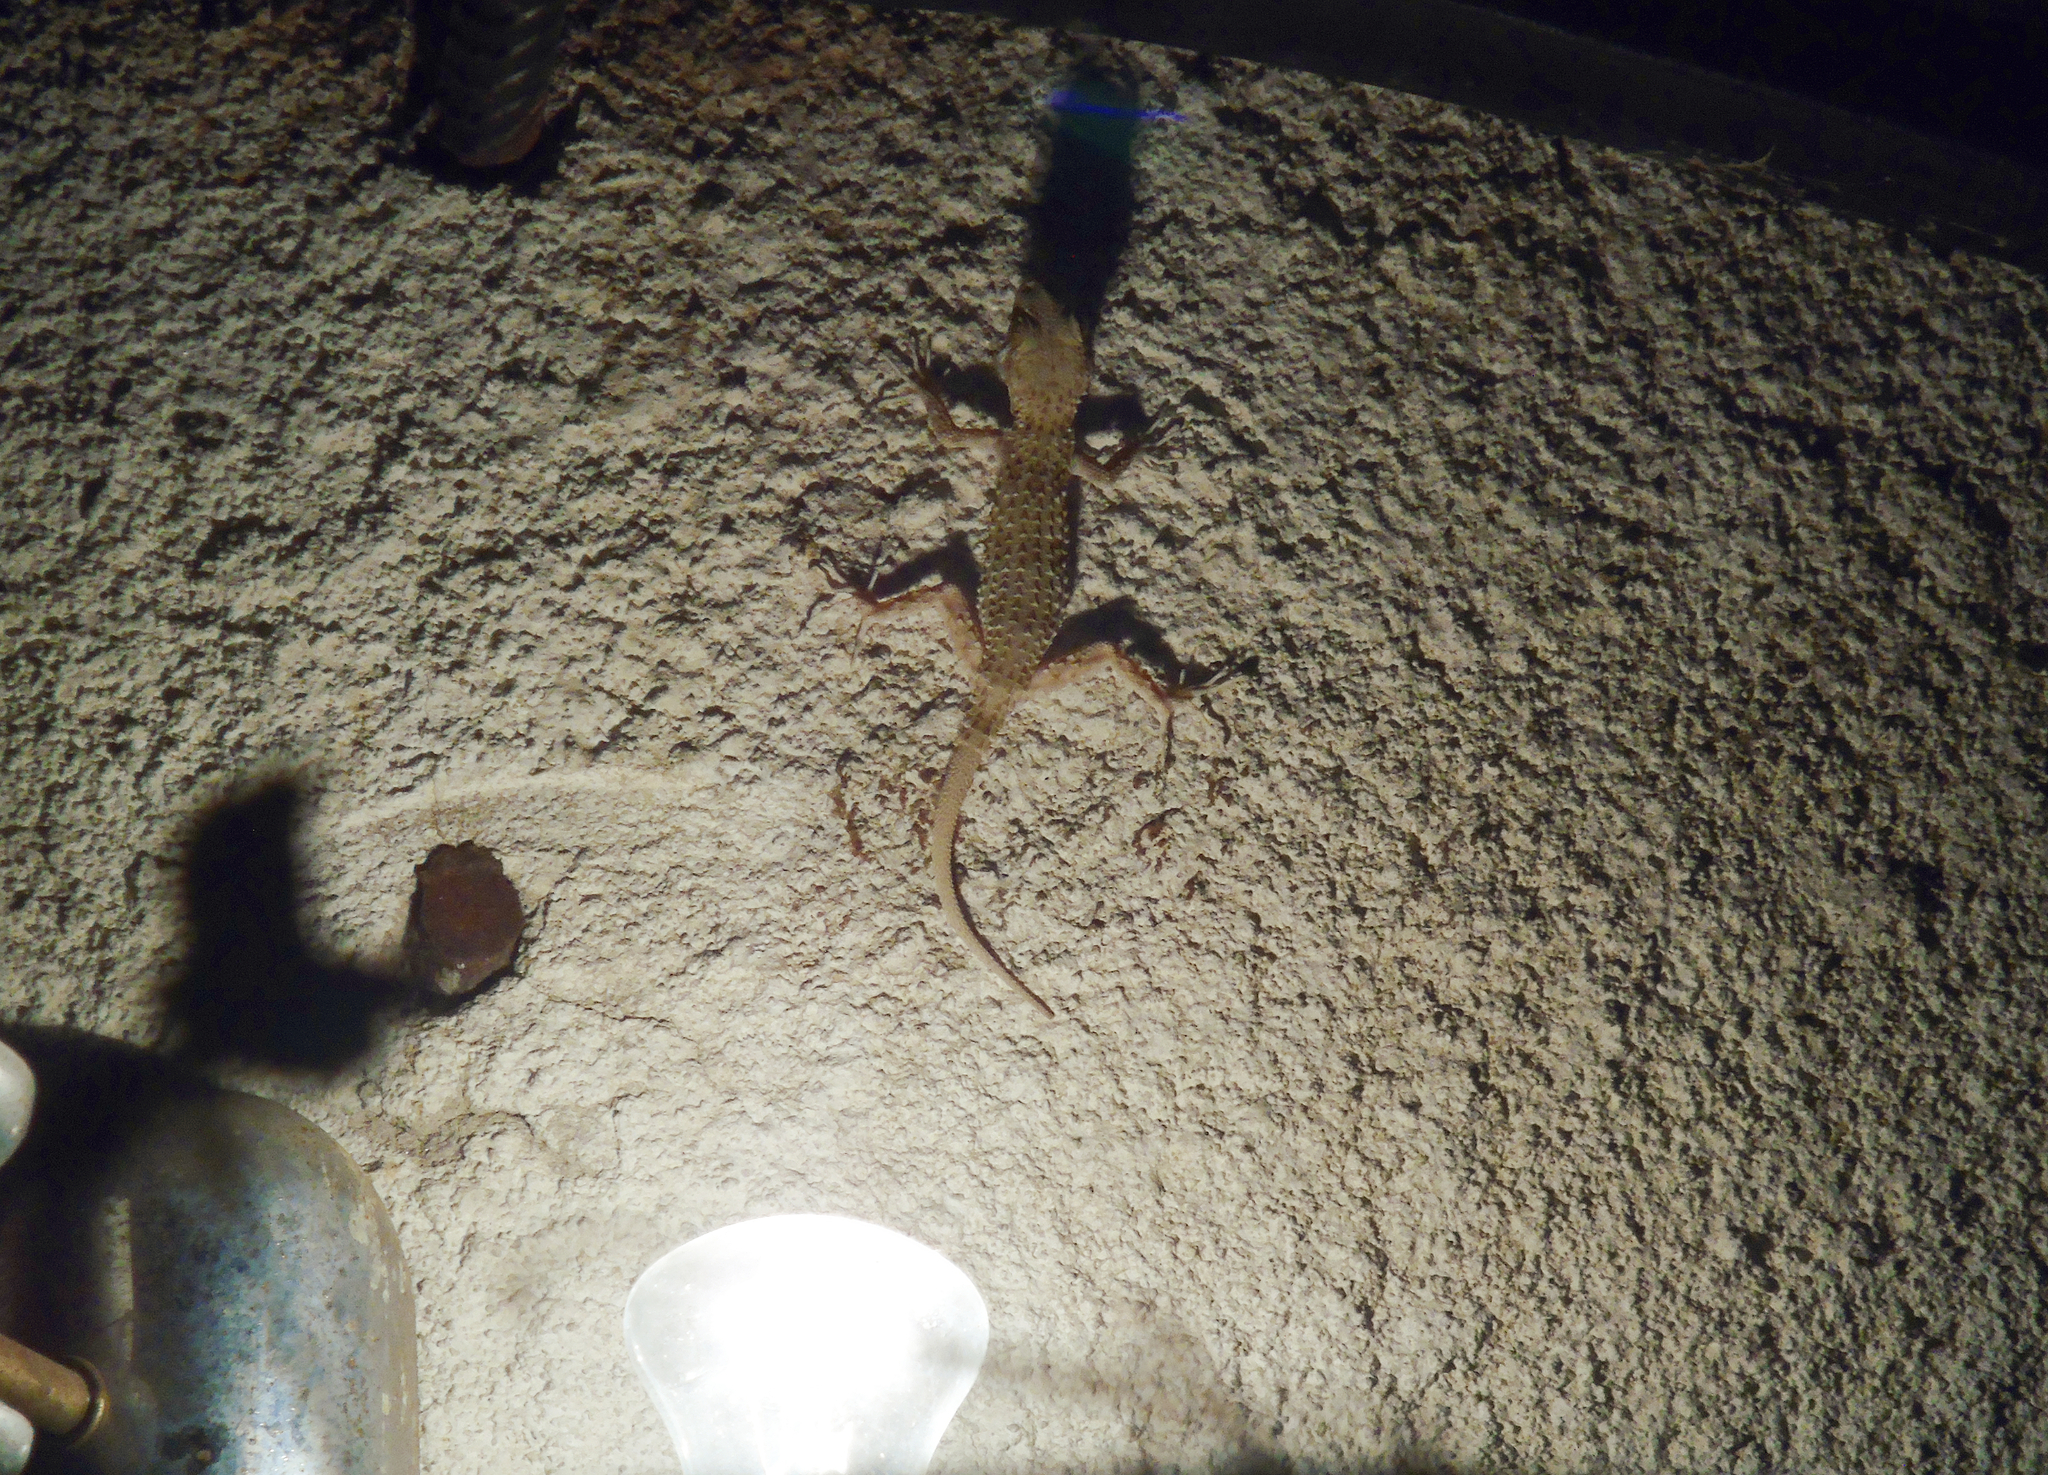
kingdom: Animalia
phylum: Chordata
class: Squamata
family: Gekkonidae
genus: Tenuidactylus
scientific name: Tenuidactylus caspius
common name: Caspian bent-toed gecko
